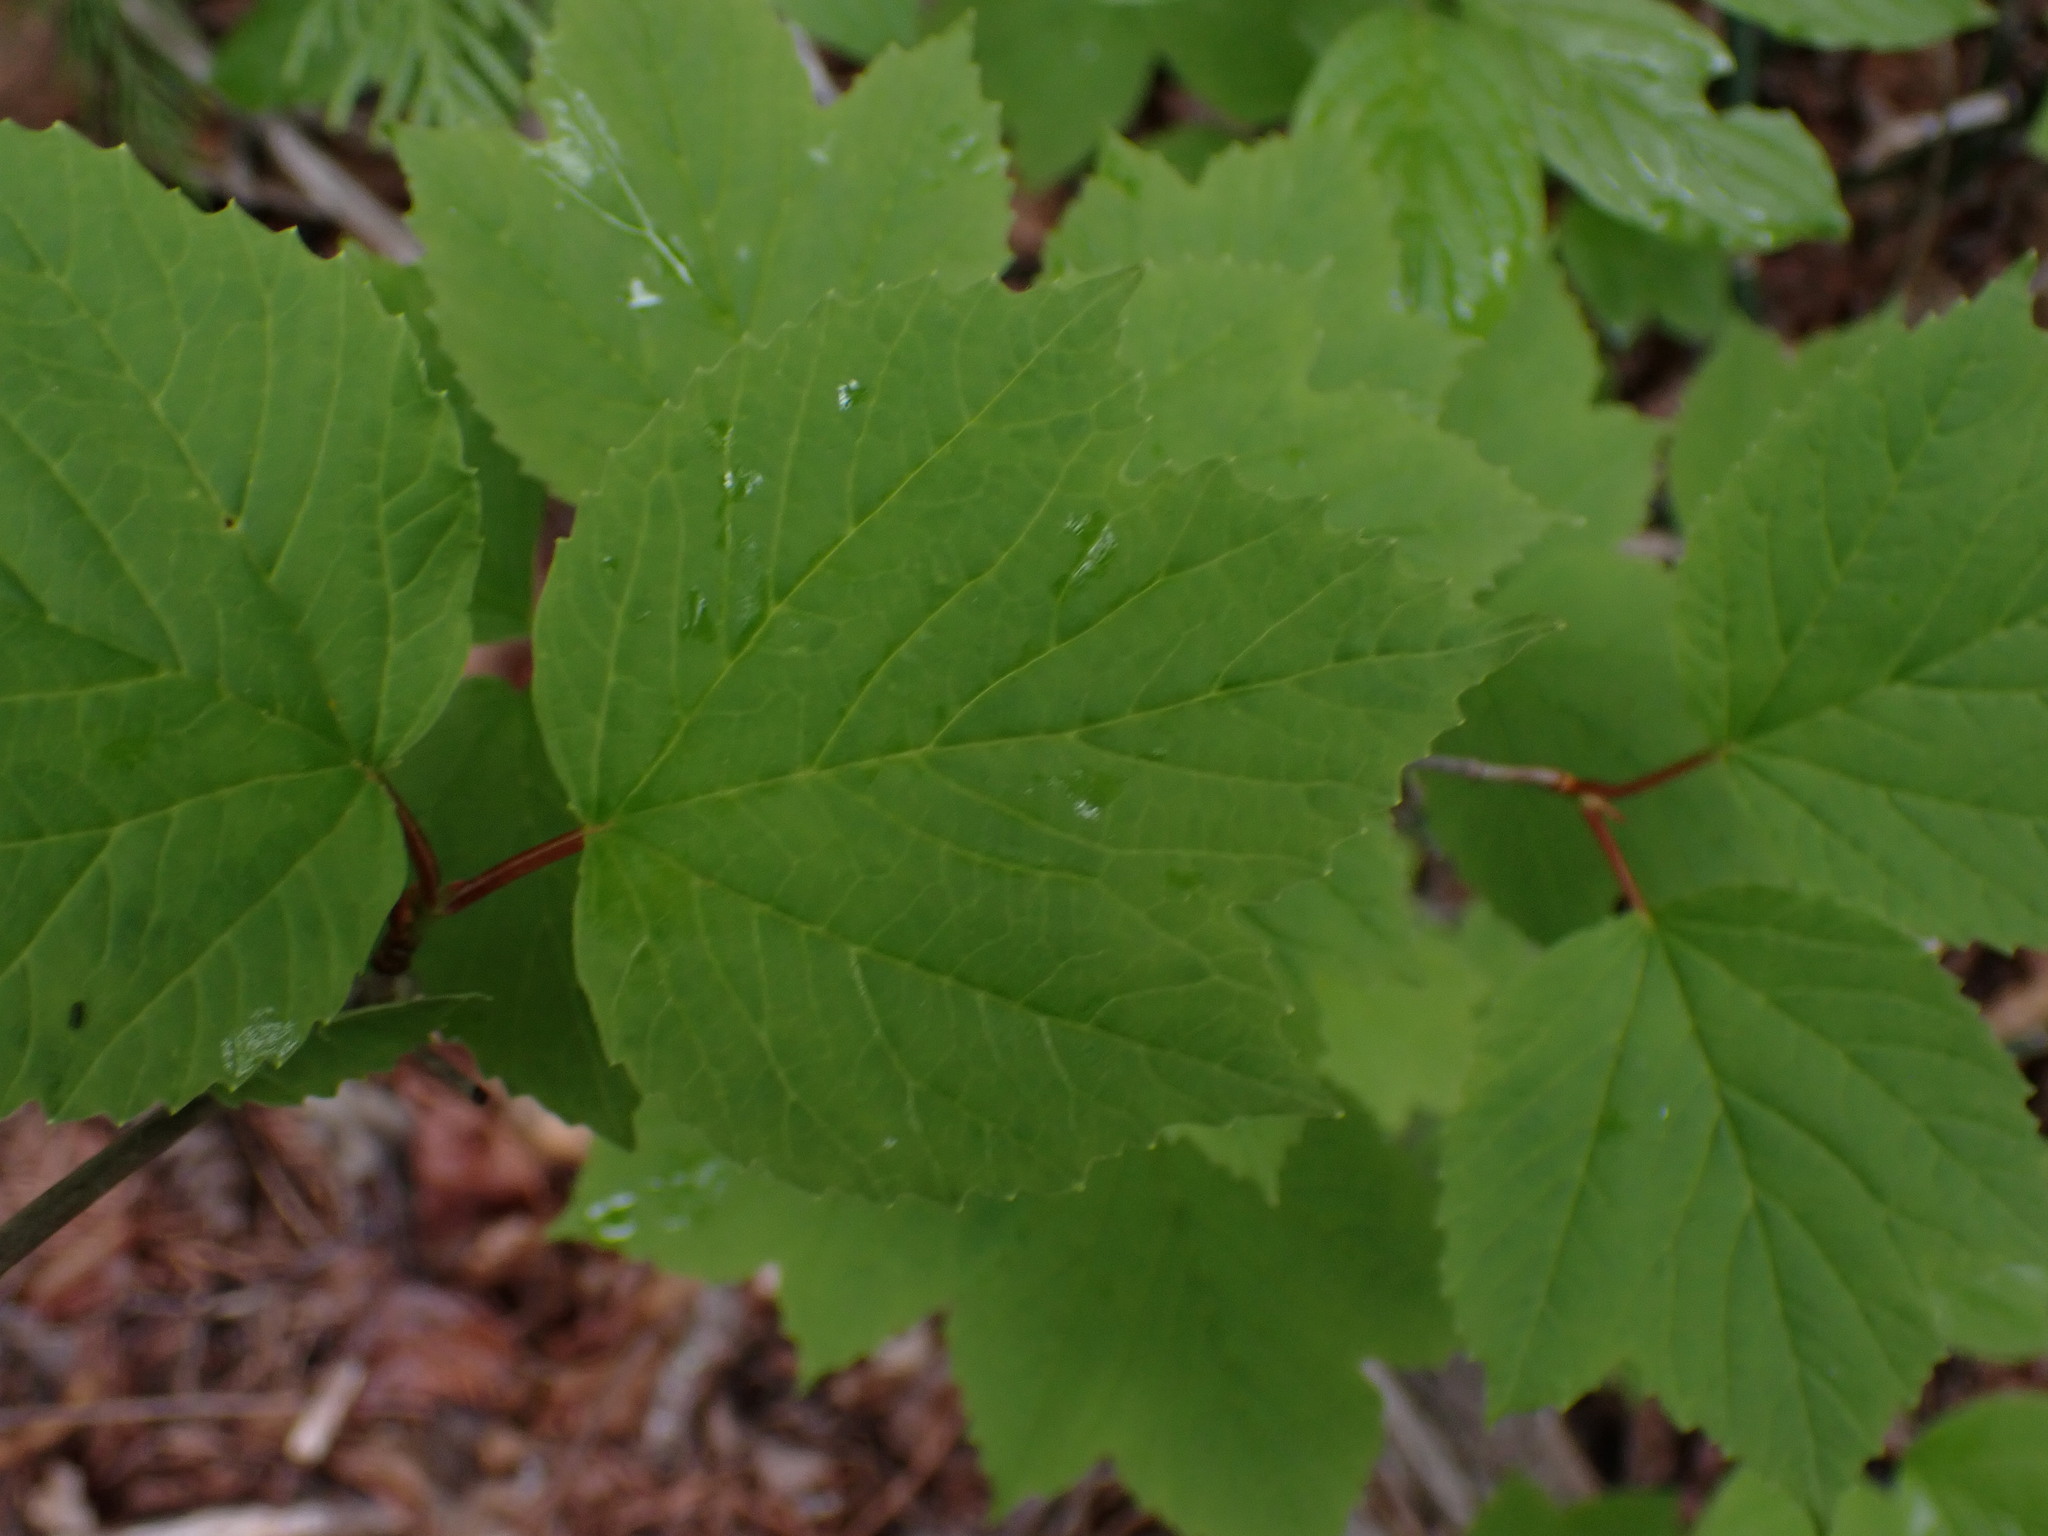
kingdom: Plantae
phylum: Tracheophyta
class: Magnoliopsida
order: Dipsacales
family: Viburnaceae
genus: Viburnum
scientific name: Viburnum edule
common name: Mooseberry
